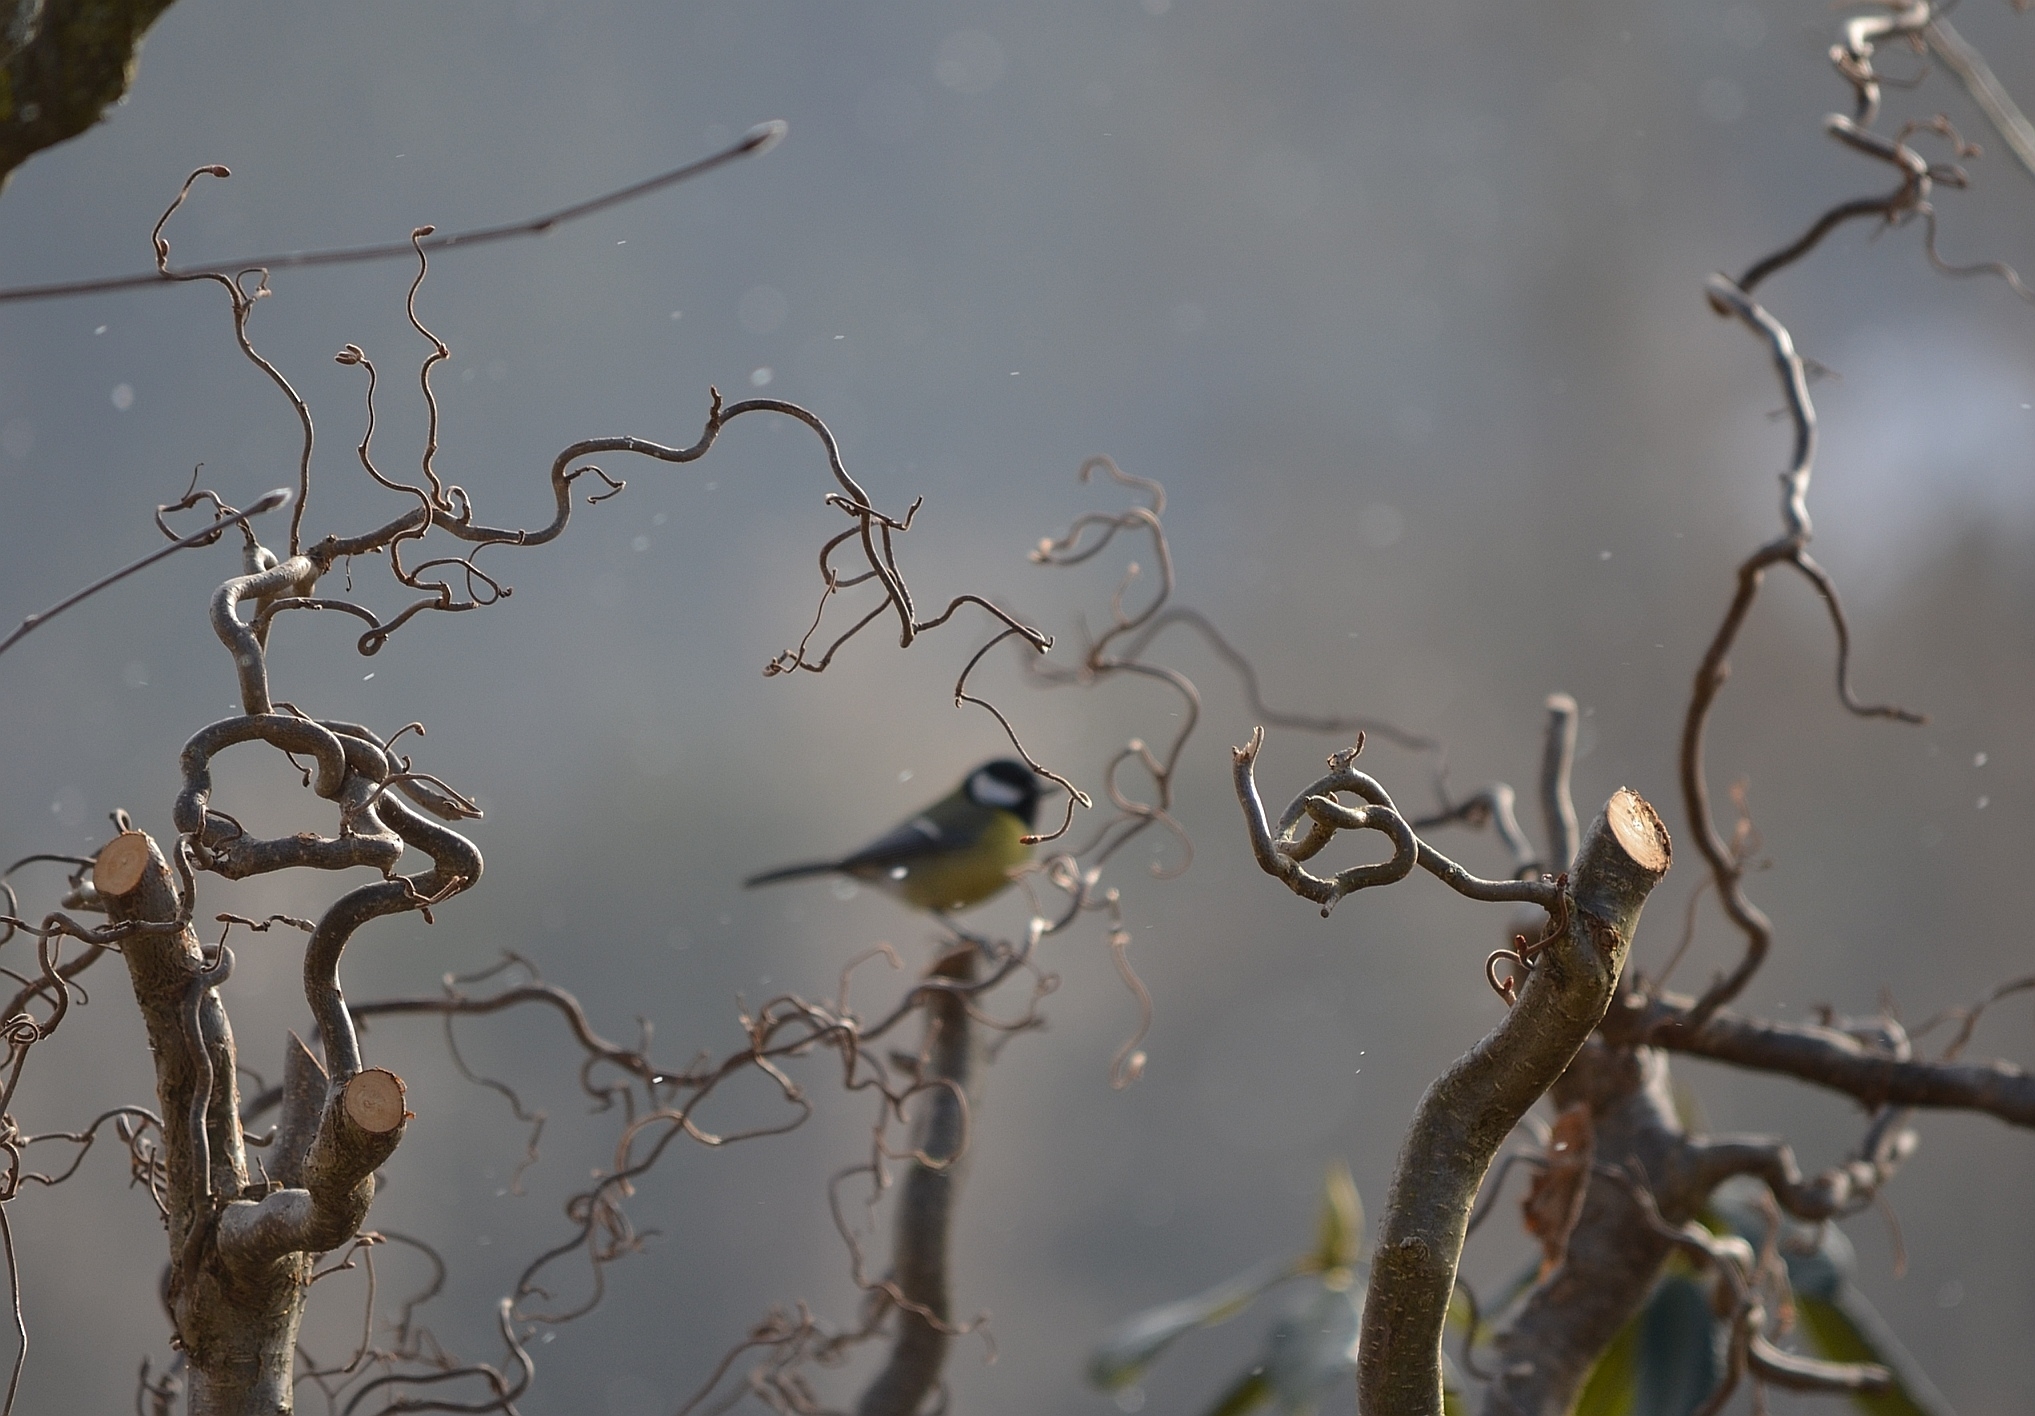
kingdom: Animalia
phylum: Chordata
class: Aves
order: Passeriformes
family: Paridae
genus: Parus
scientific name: Parus major
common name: Great tit
